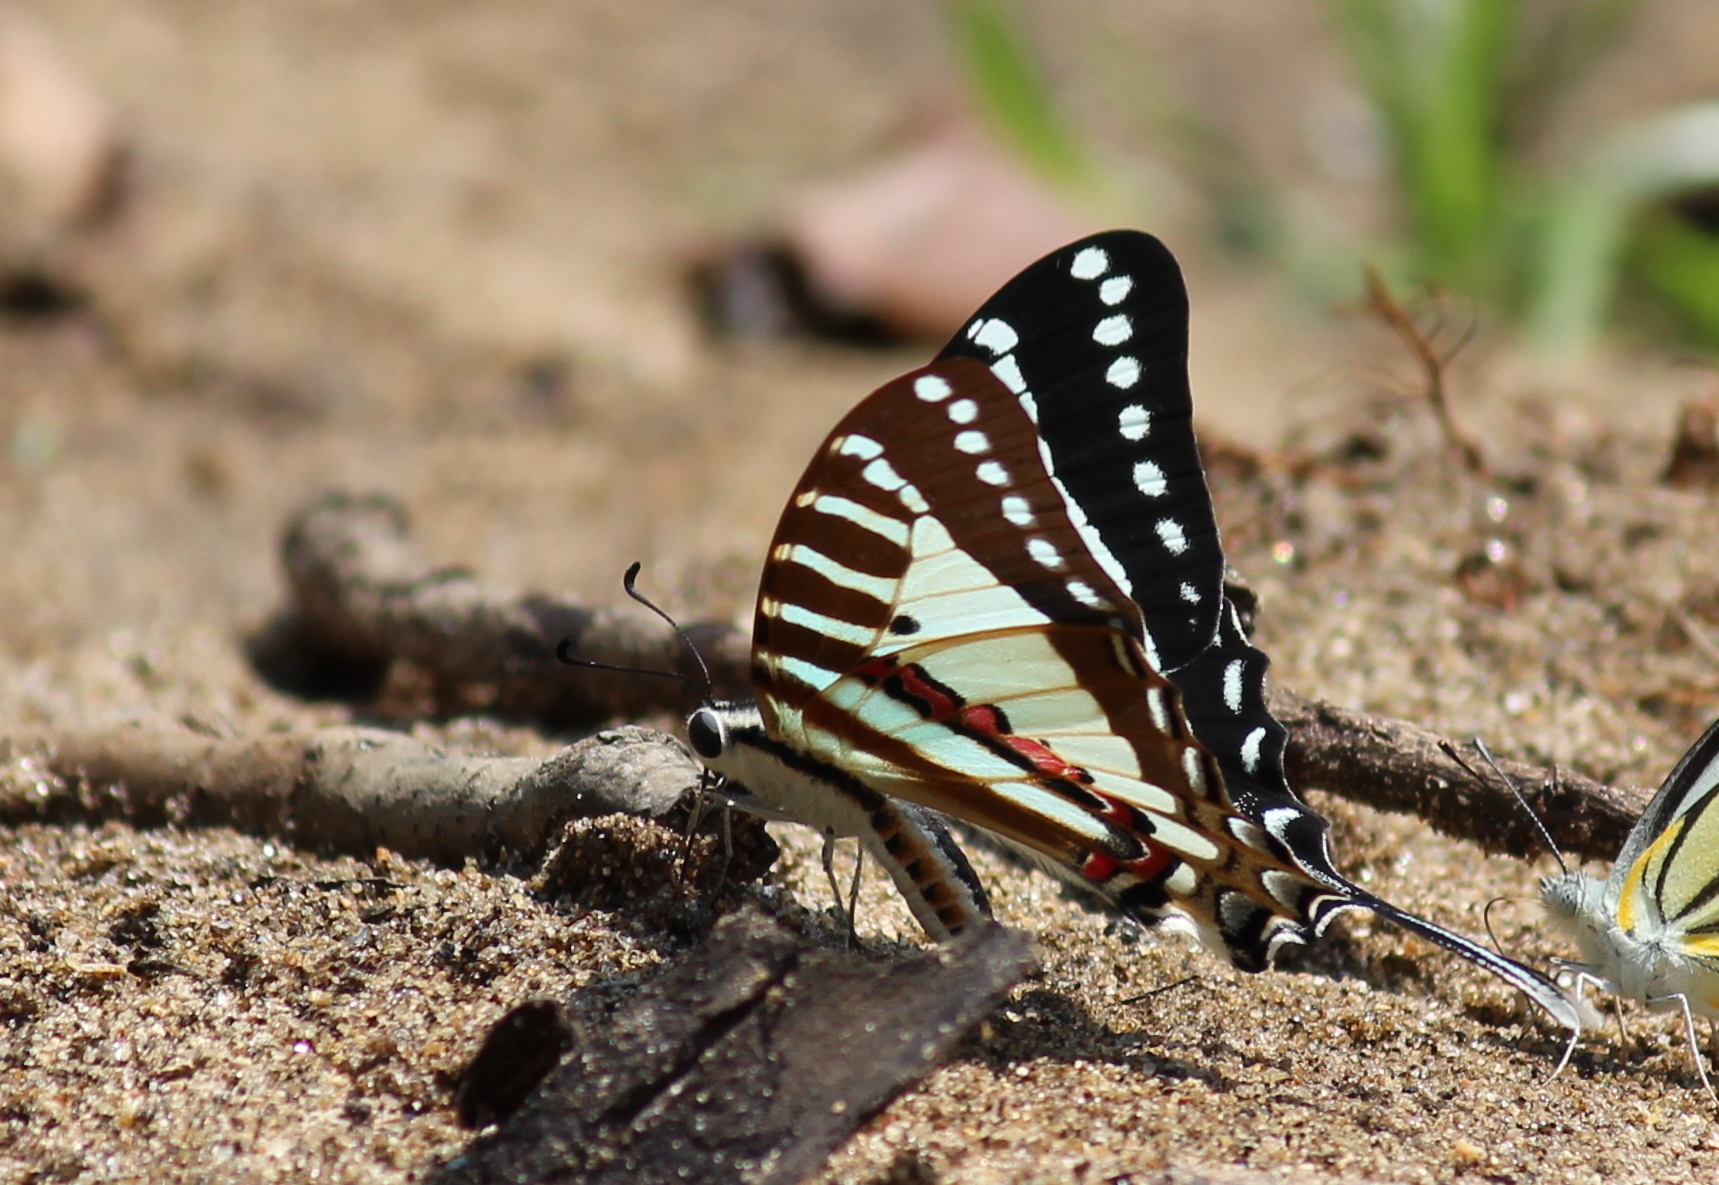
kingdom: Animalia
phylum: Arthropoda
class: Insecta
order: Lepidoptera
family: Papilionidae
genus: Graphium
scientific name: Graphium nomius
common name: Spot swordtail
